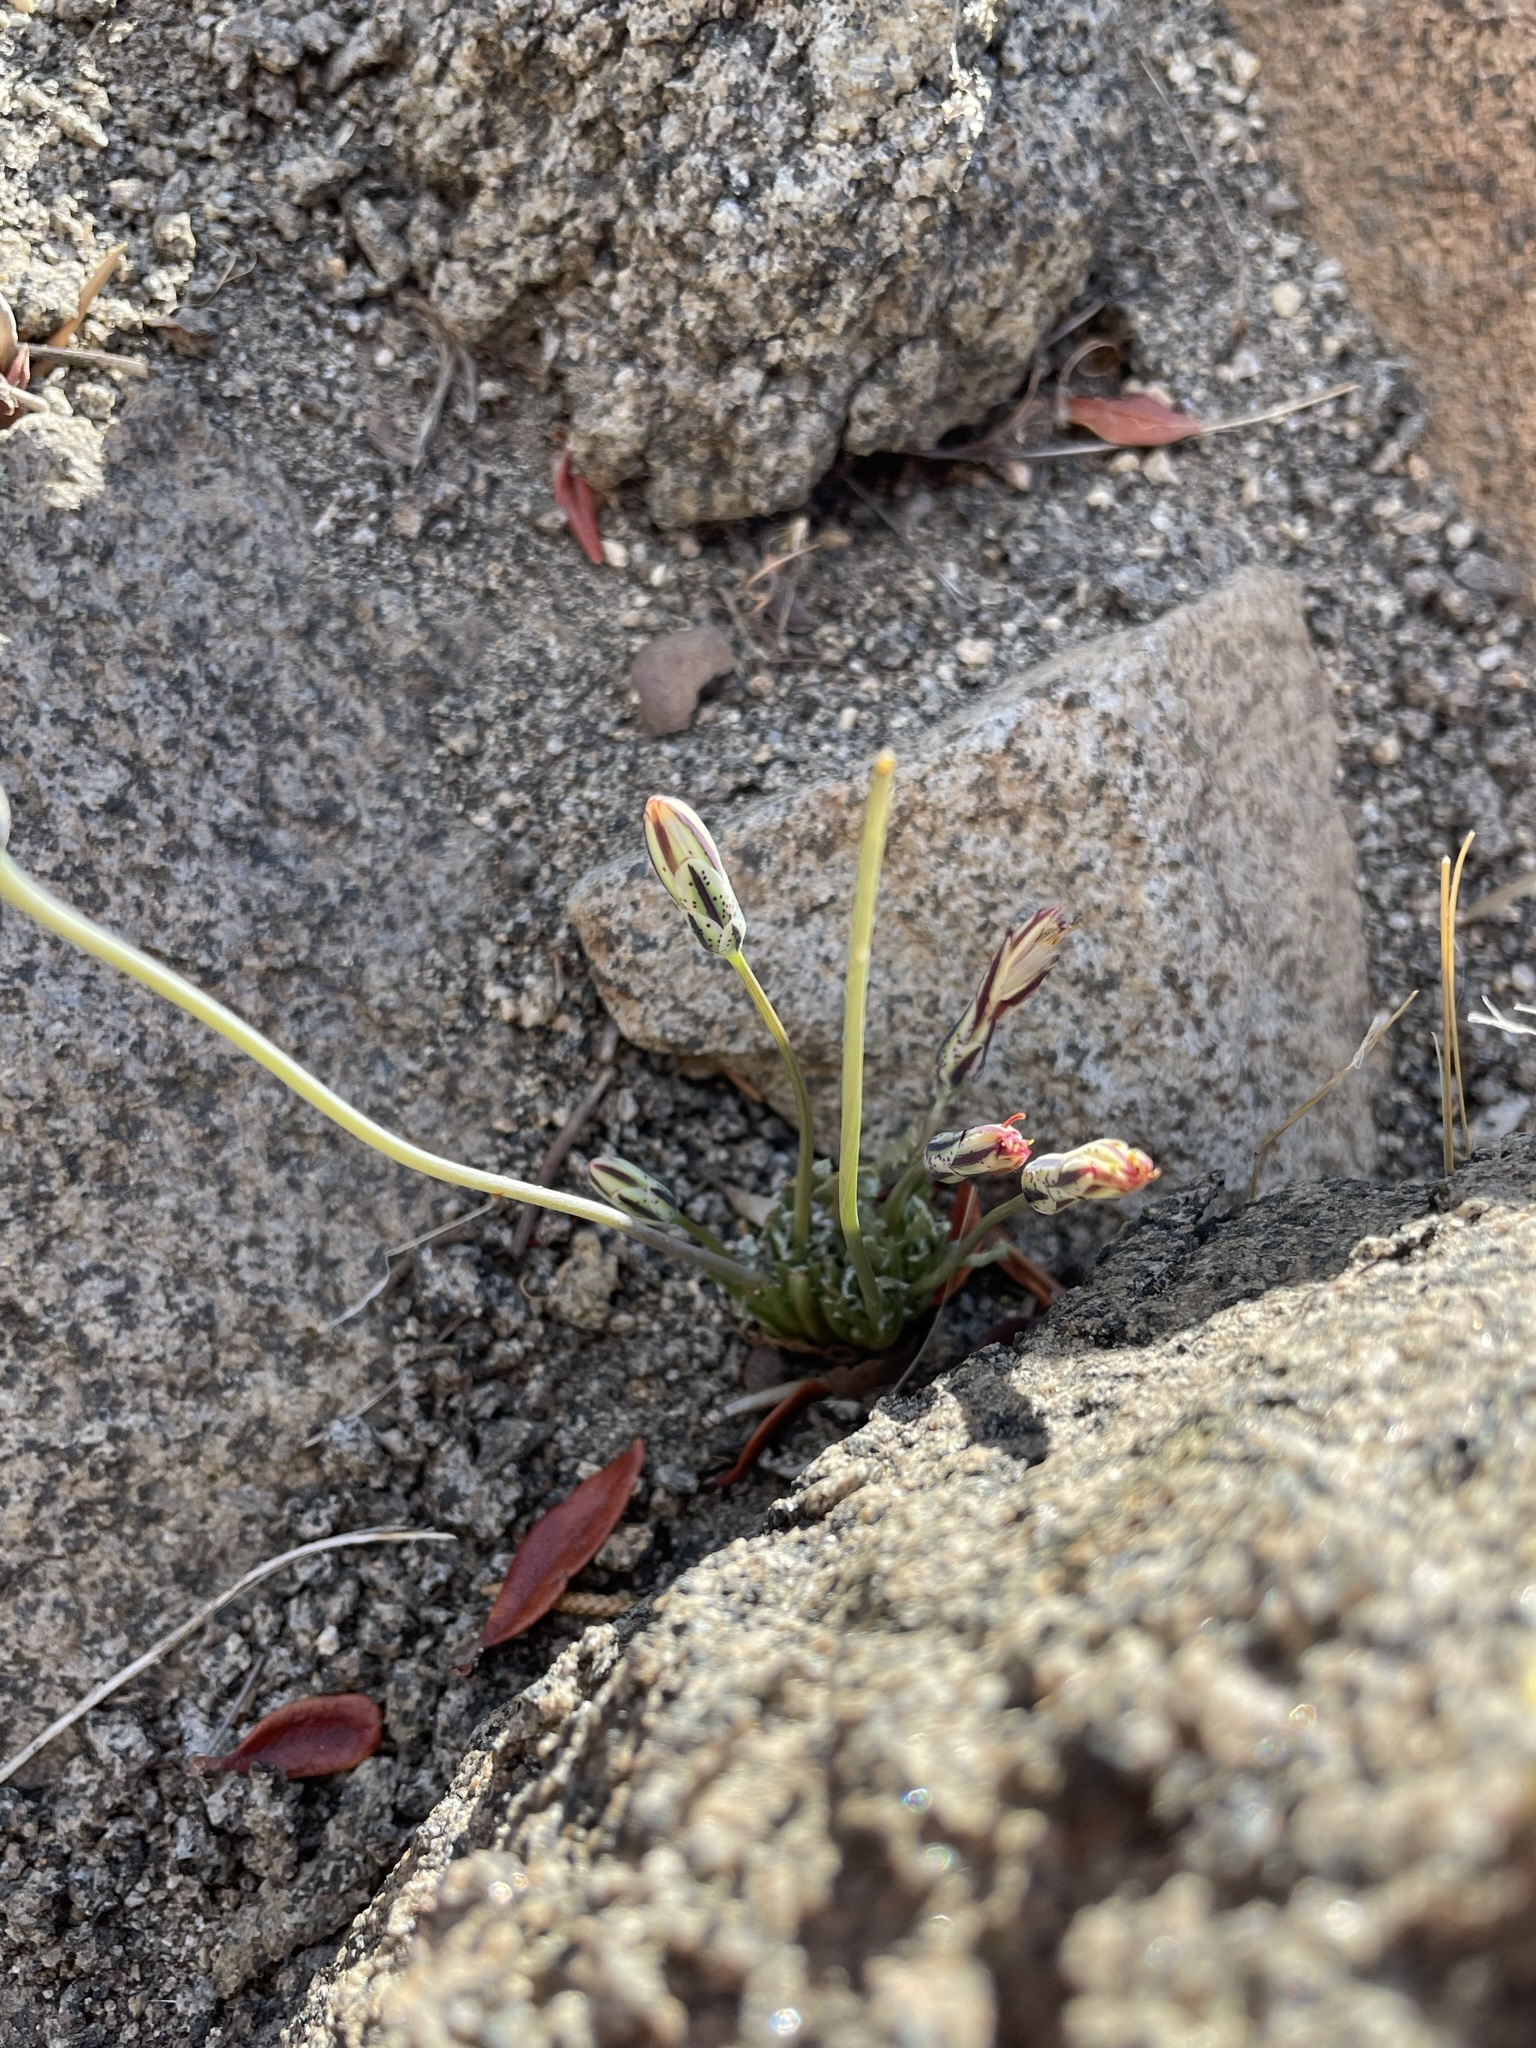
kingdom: Plantae
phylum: Tracheophyta
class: Magnoliopsida
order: Asterales
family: Asteraceae
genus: Anisocoma
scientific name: Anisocoma acaulis
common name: Scalebud
